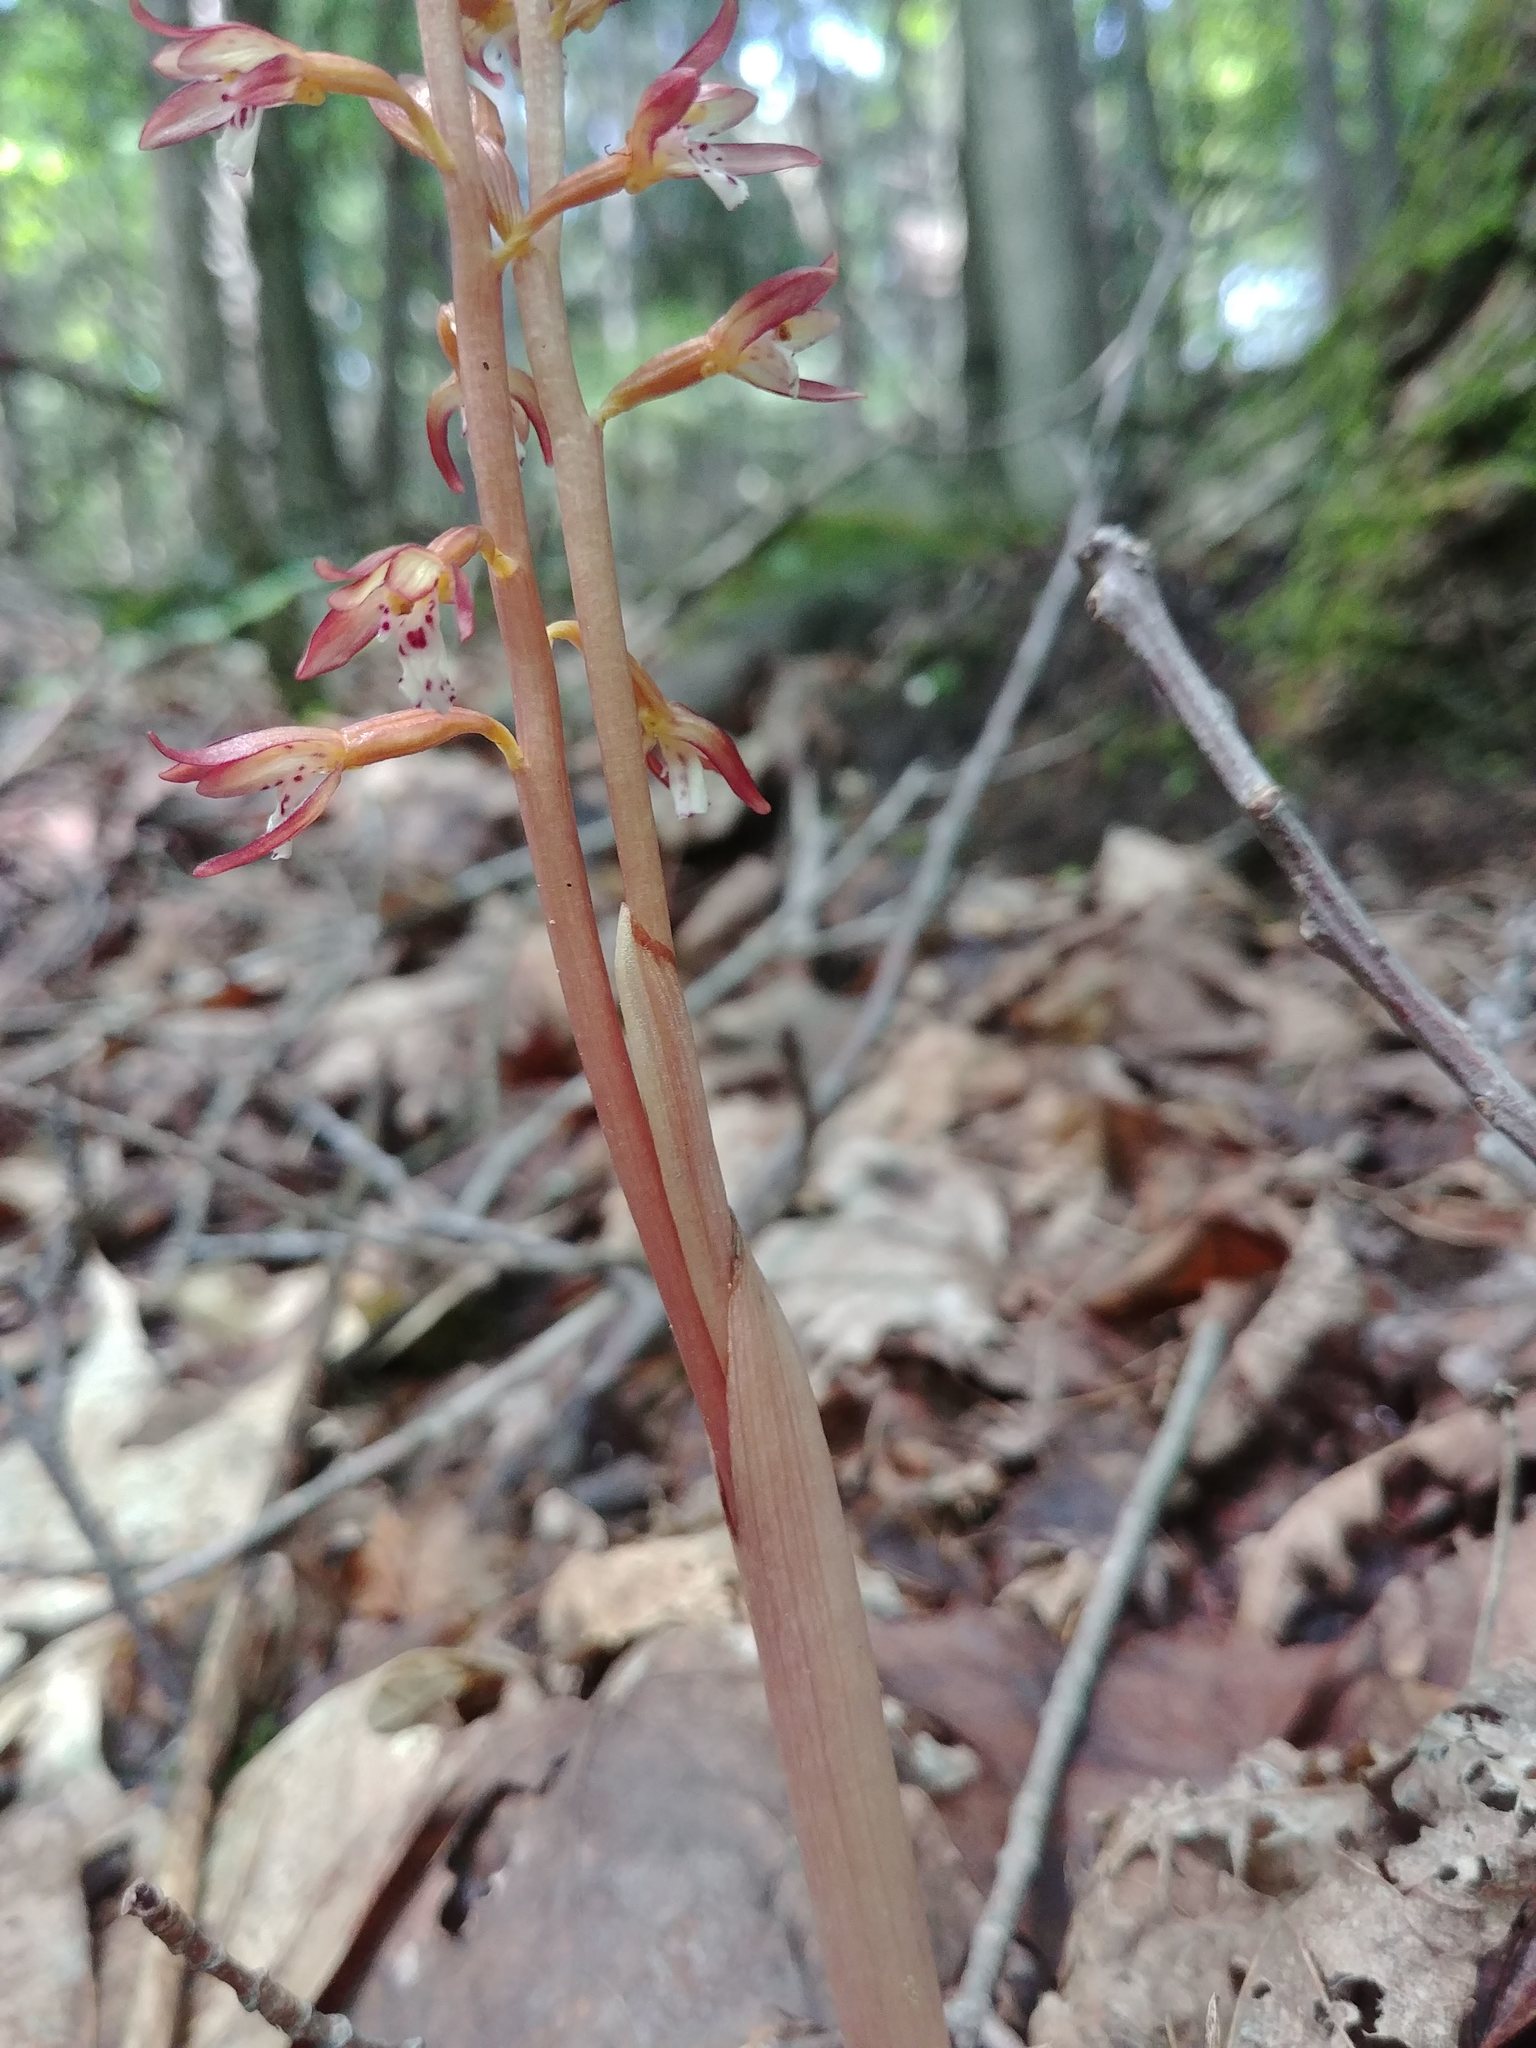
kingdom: Plantae
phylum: Tracheophyta
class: Liliopsida
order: Asparagales
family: Orchidaceae
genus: Corallorhiza
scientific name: Corallorhiza maculata
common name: Spotted coralroot
